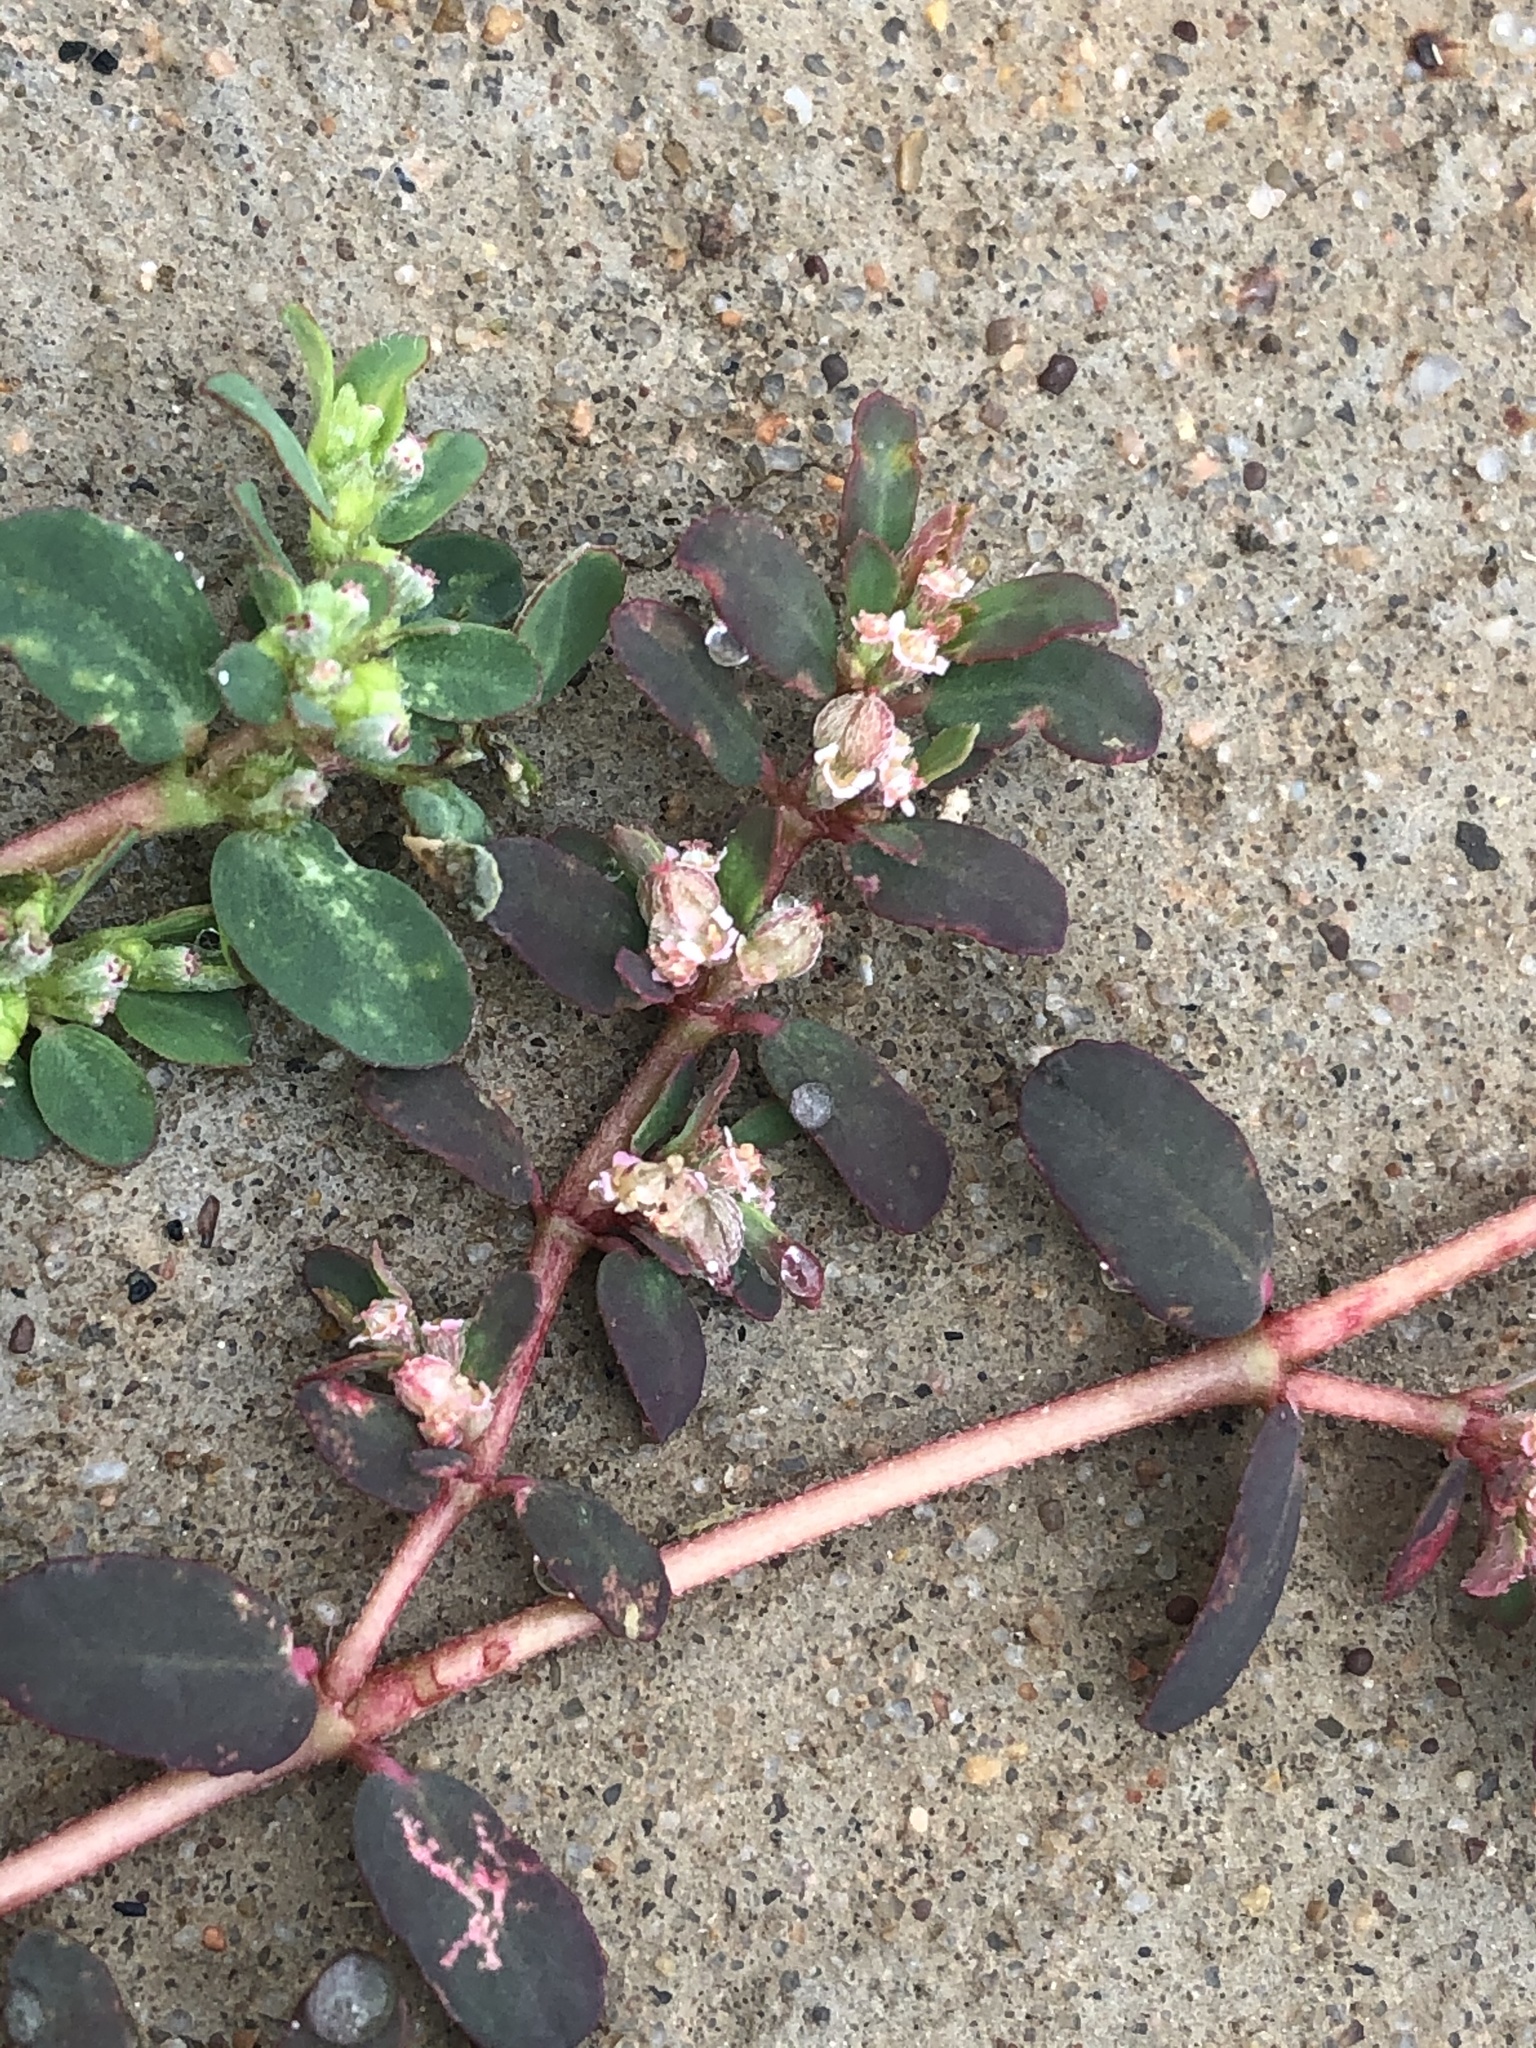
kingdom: Plantae
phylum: Tracheophyta
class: Magnoliopsida
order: Malpighiales
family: Euphorbiaceae
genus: Euphorbia
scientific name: Euphorbia maculata
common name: Spotted spurge
